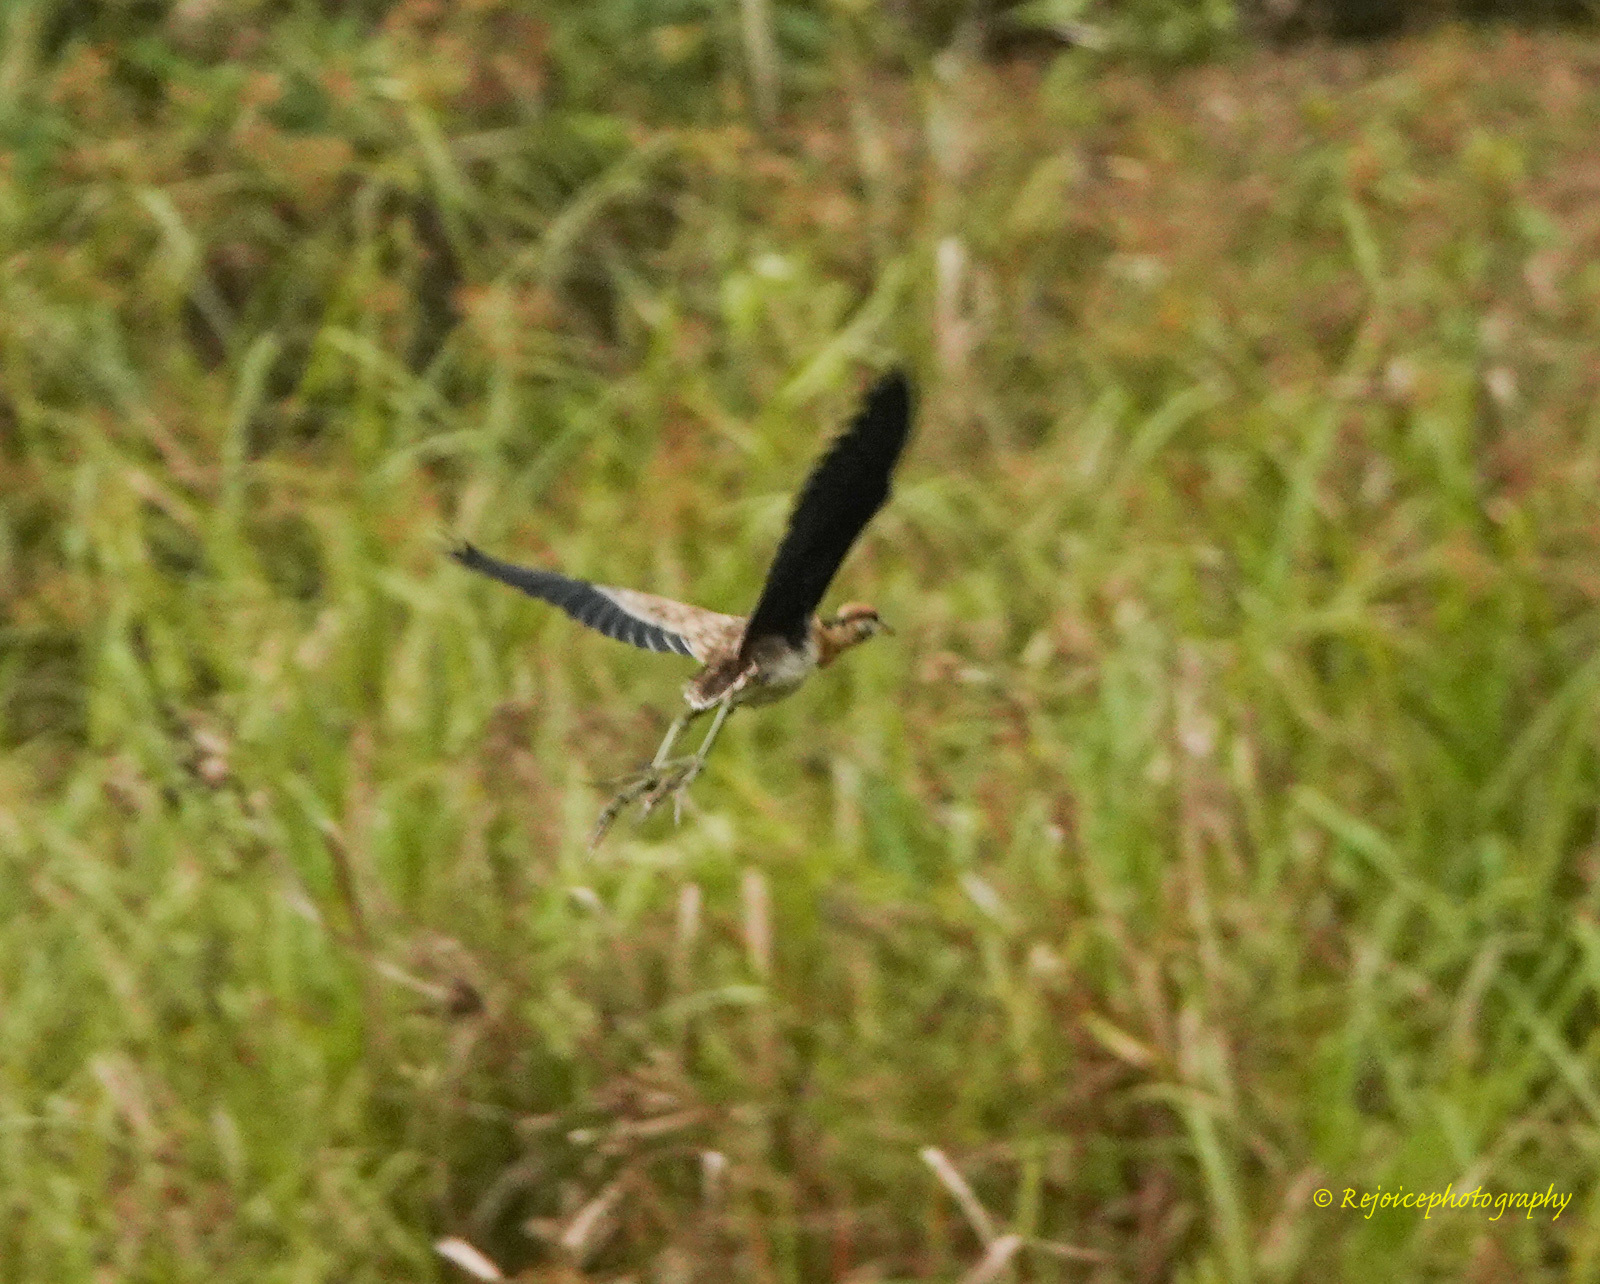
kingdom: Animalia
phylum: Chordata
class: Aves
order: Charadriiformes
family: Jacanidae
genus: Metopidius
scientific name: Metopidius indicus
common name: Bronze-winged jacana
